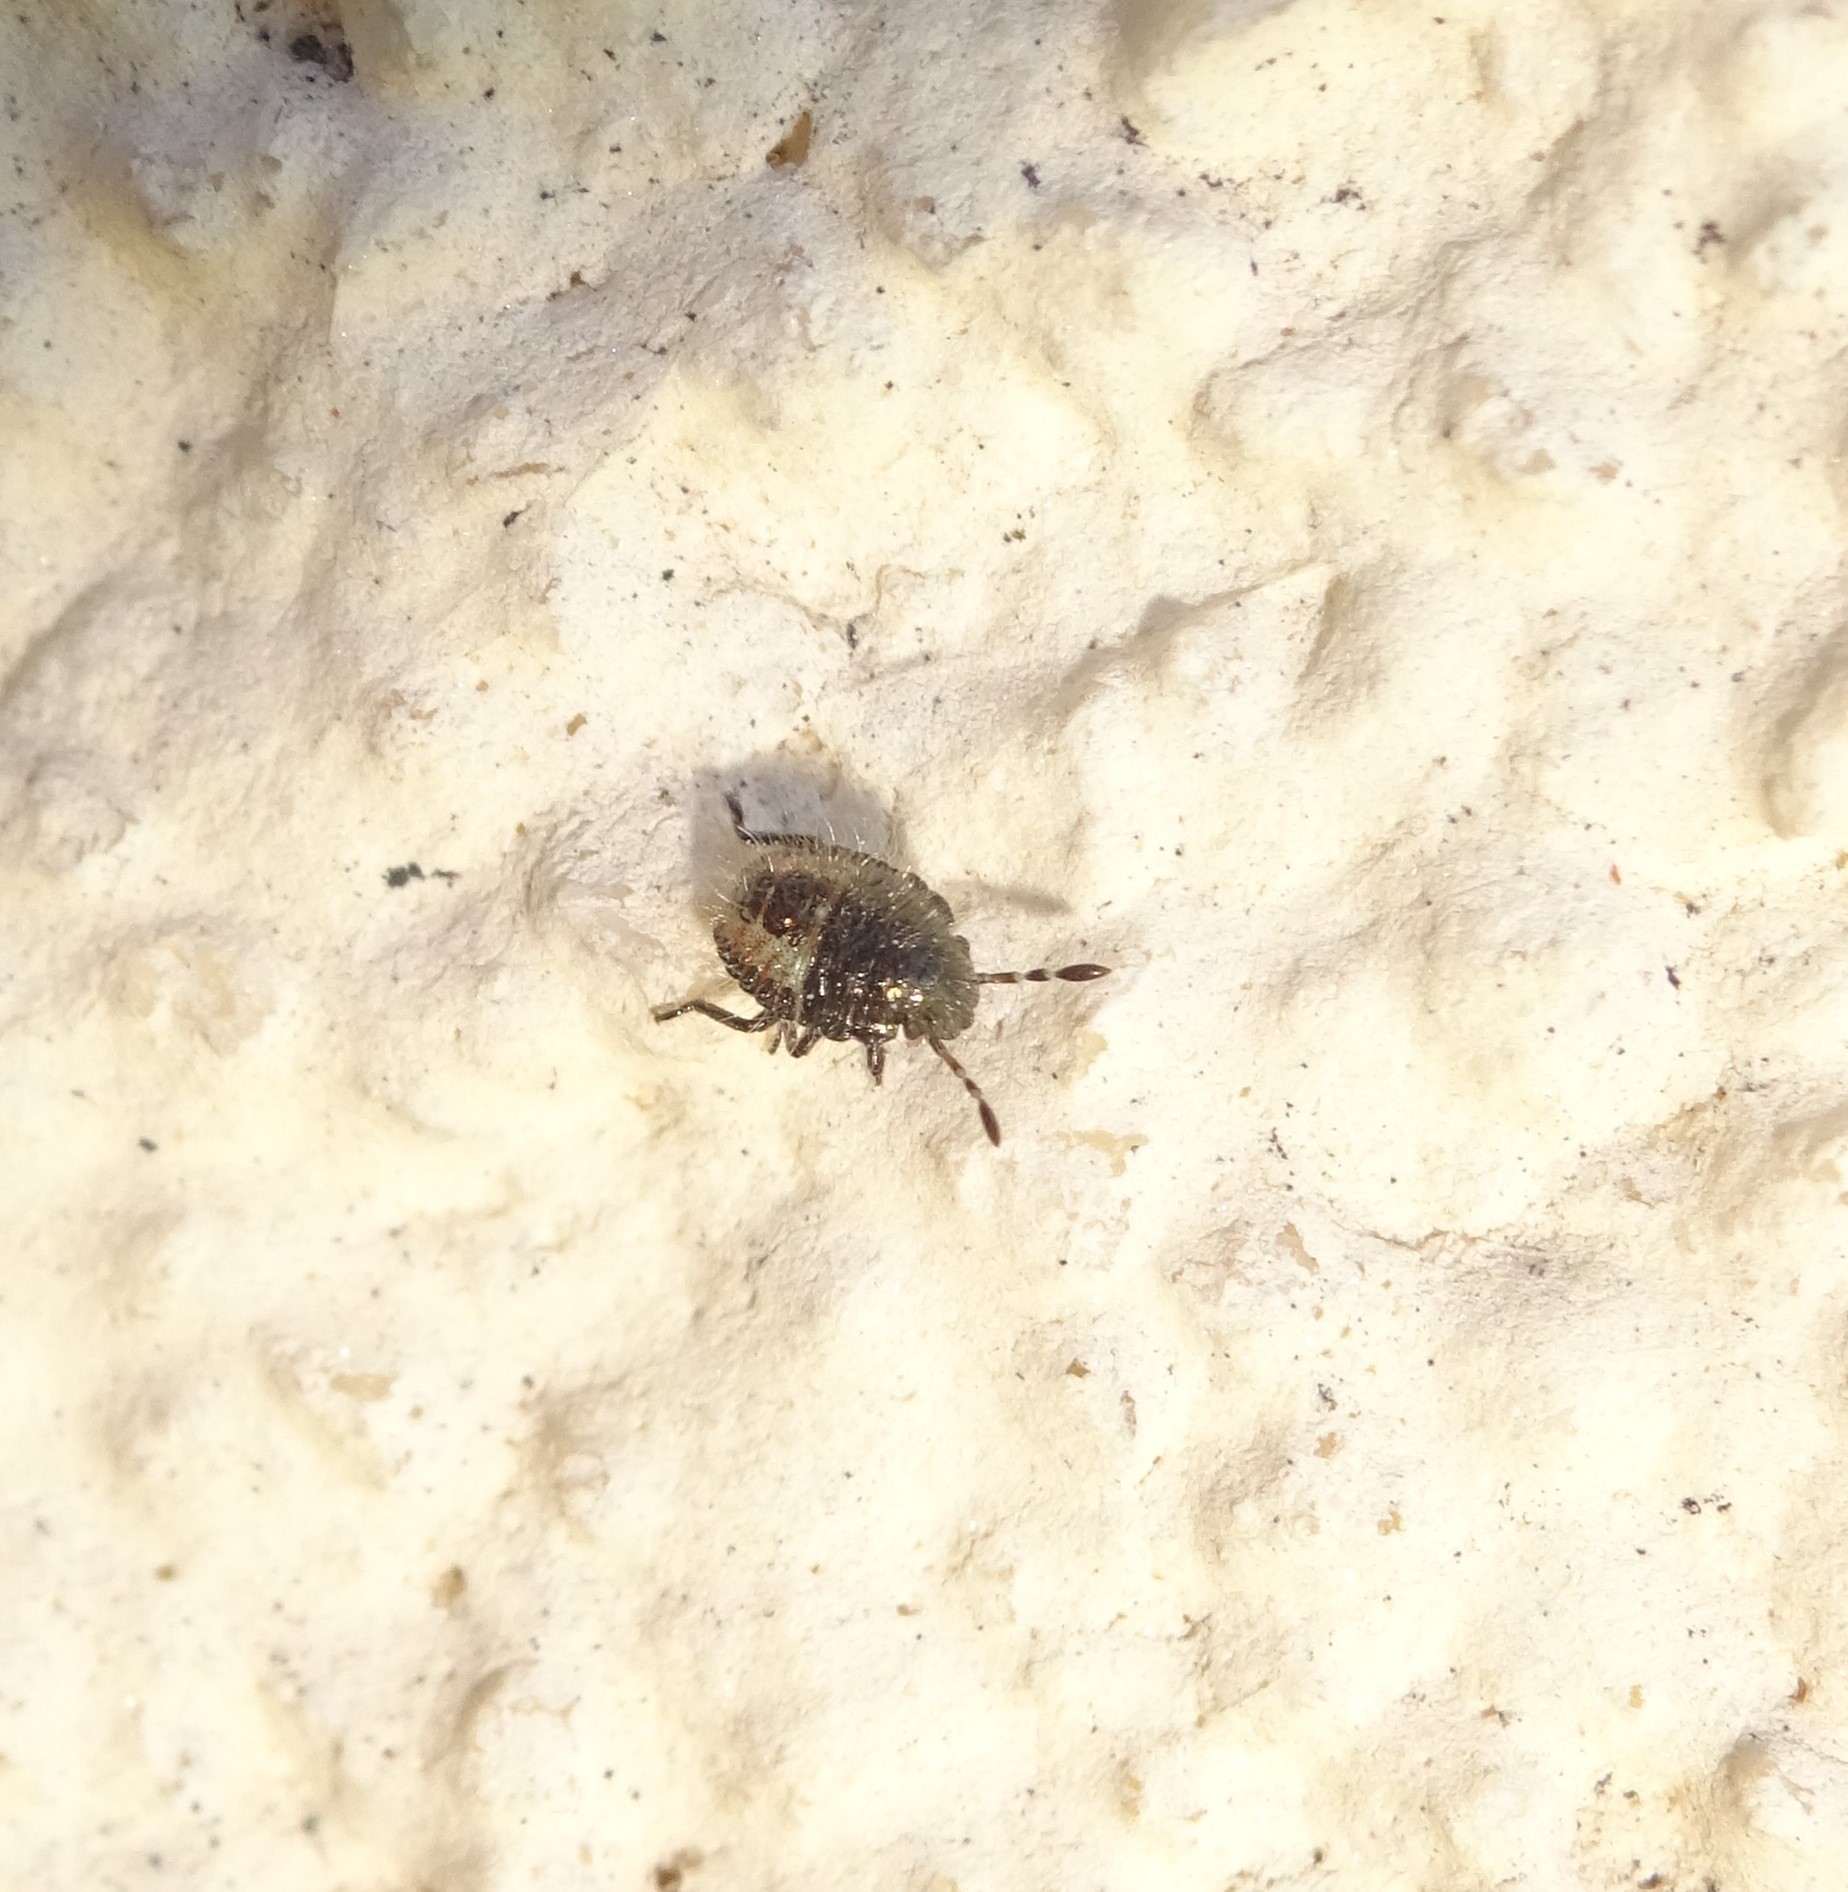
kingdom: Animalia
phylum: Arthropoda
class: Insecta
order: Hemiptera
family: Pentatomidae
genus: Dolycoris
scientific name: Dolycoris baccarum
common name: Sloe bug
